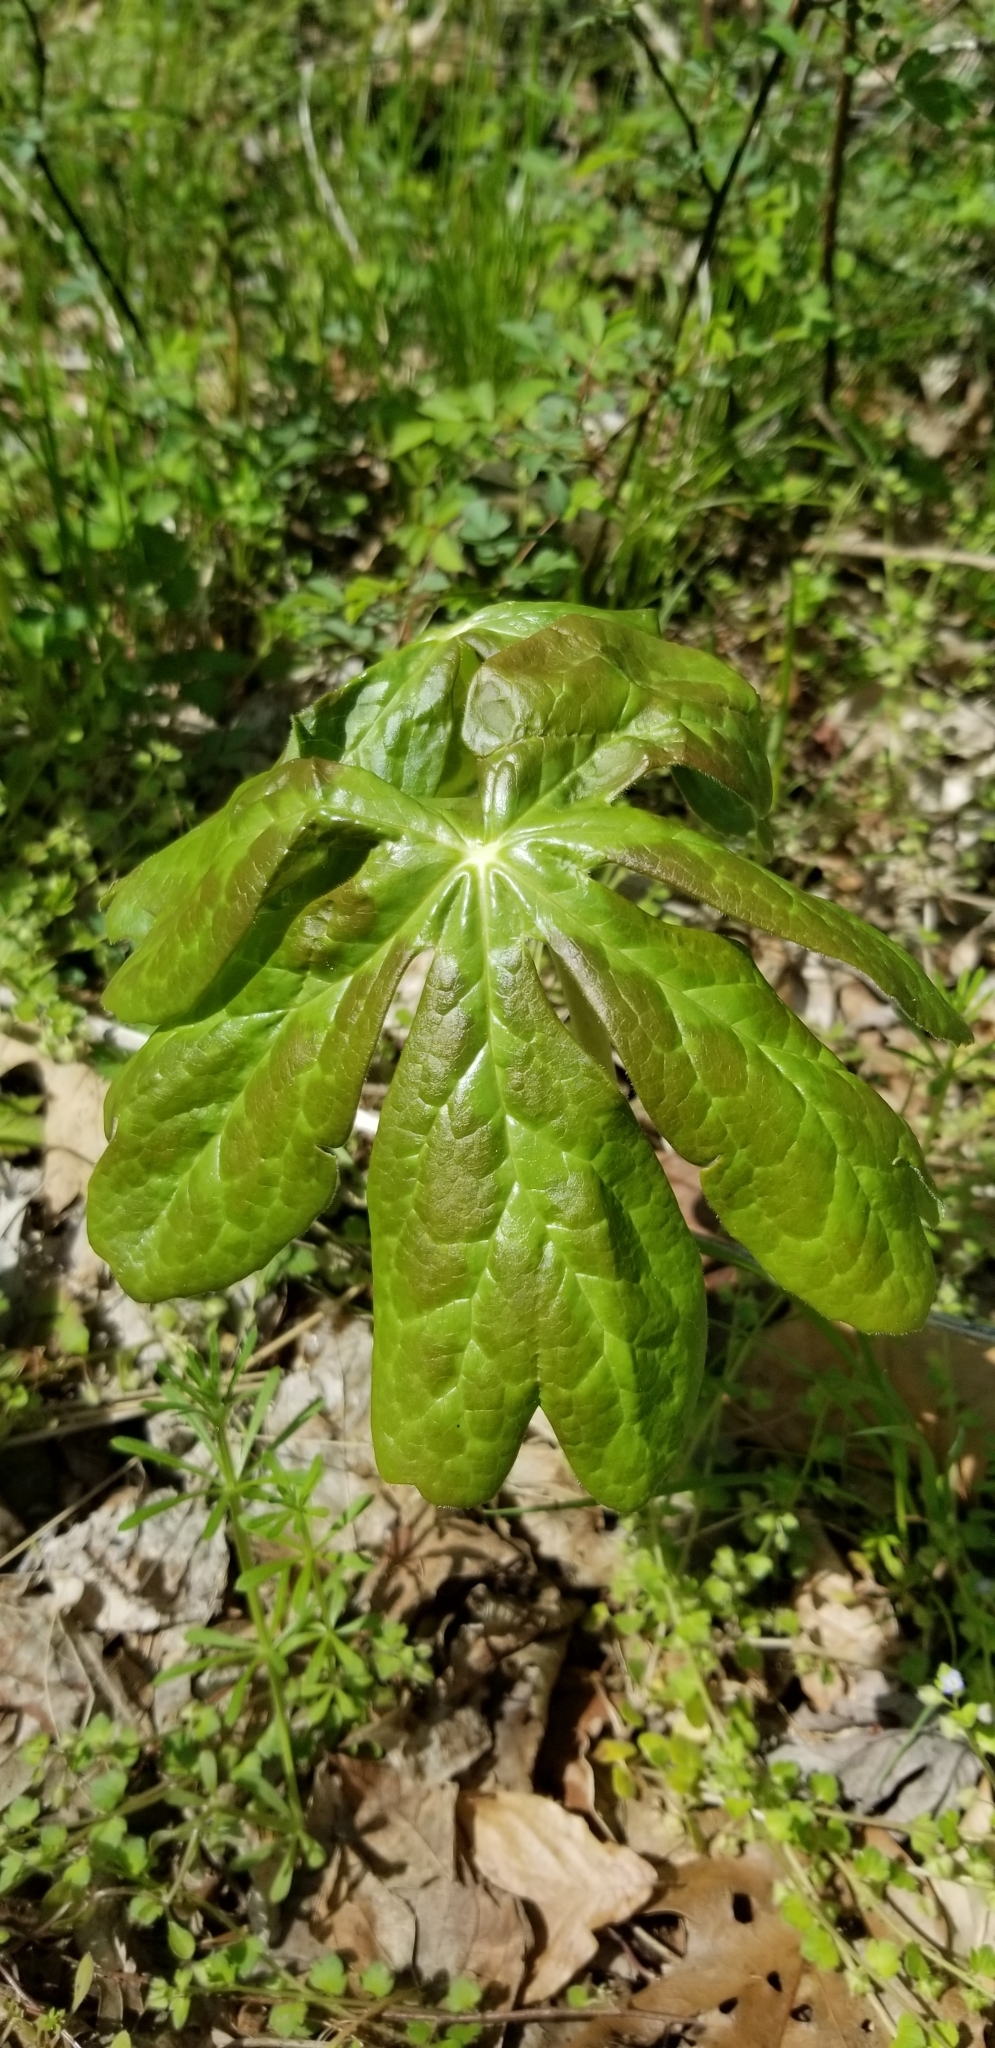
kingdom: Plantae
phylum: Tracheophyta
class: Magnoliopsida
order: Ranunculales
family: Berberidaceae
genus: Podophyllum
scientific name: Podophyllum peltatum
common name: Wild mandrake
